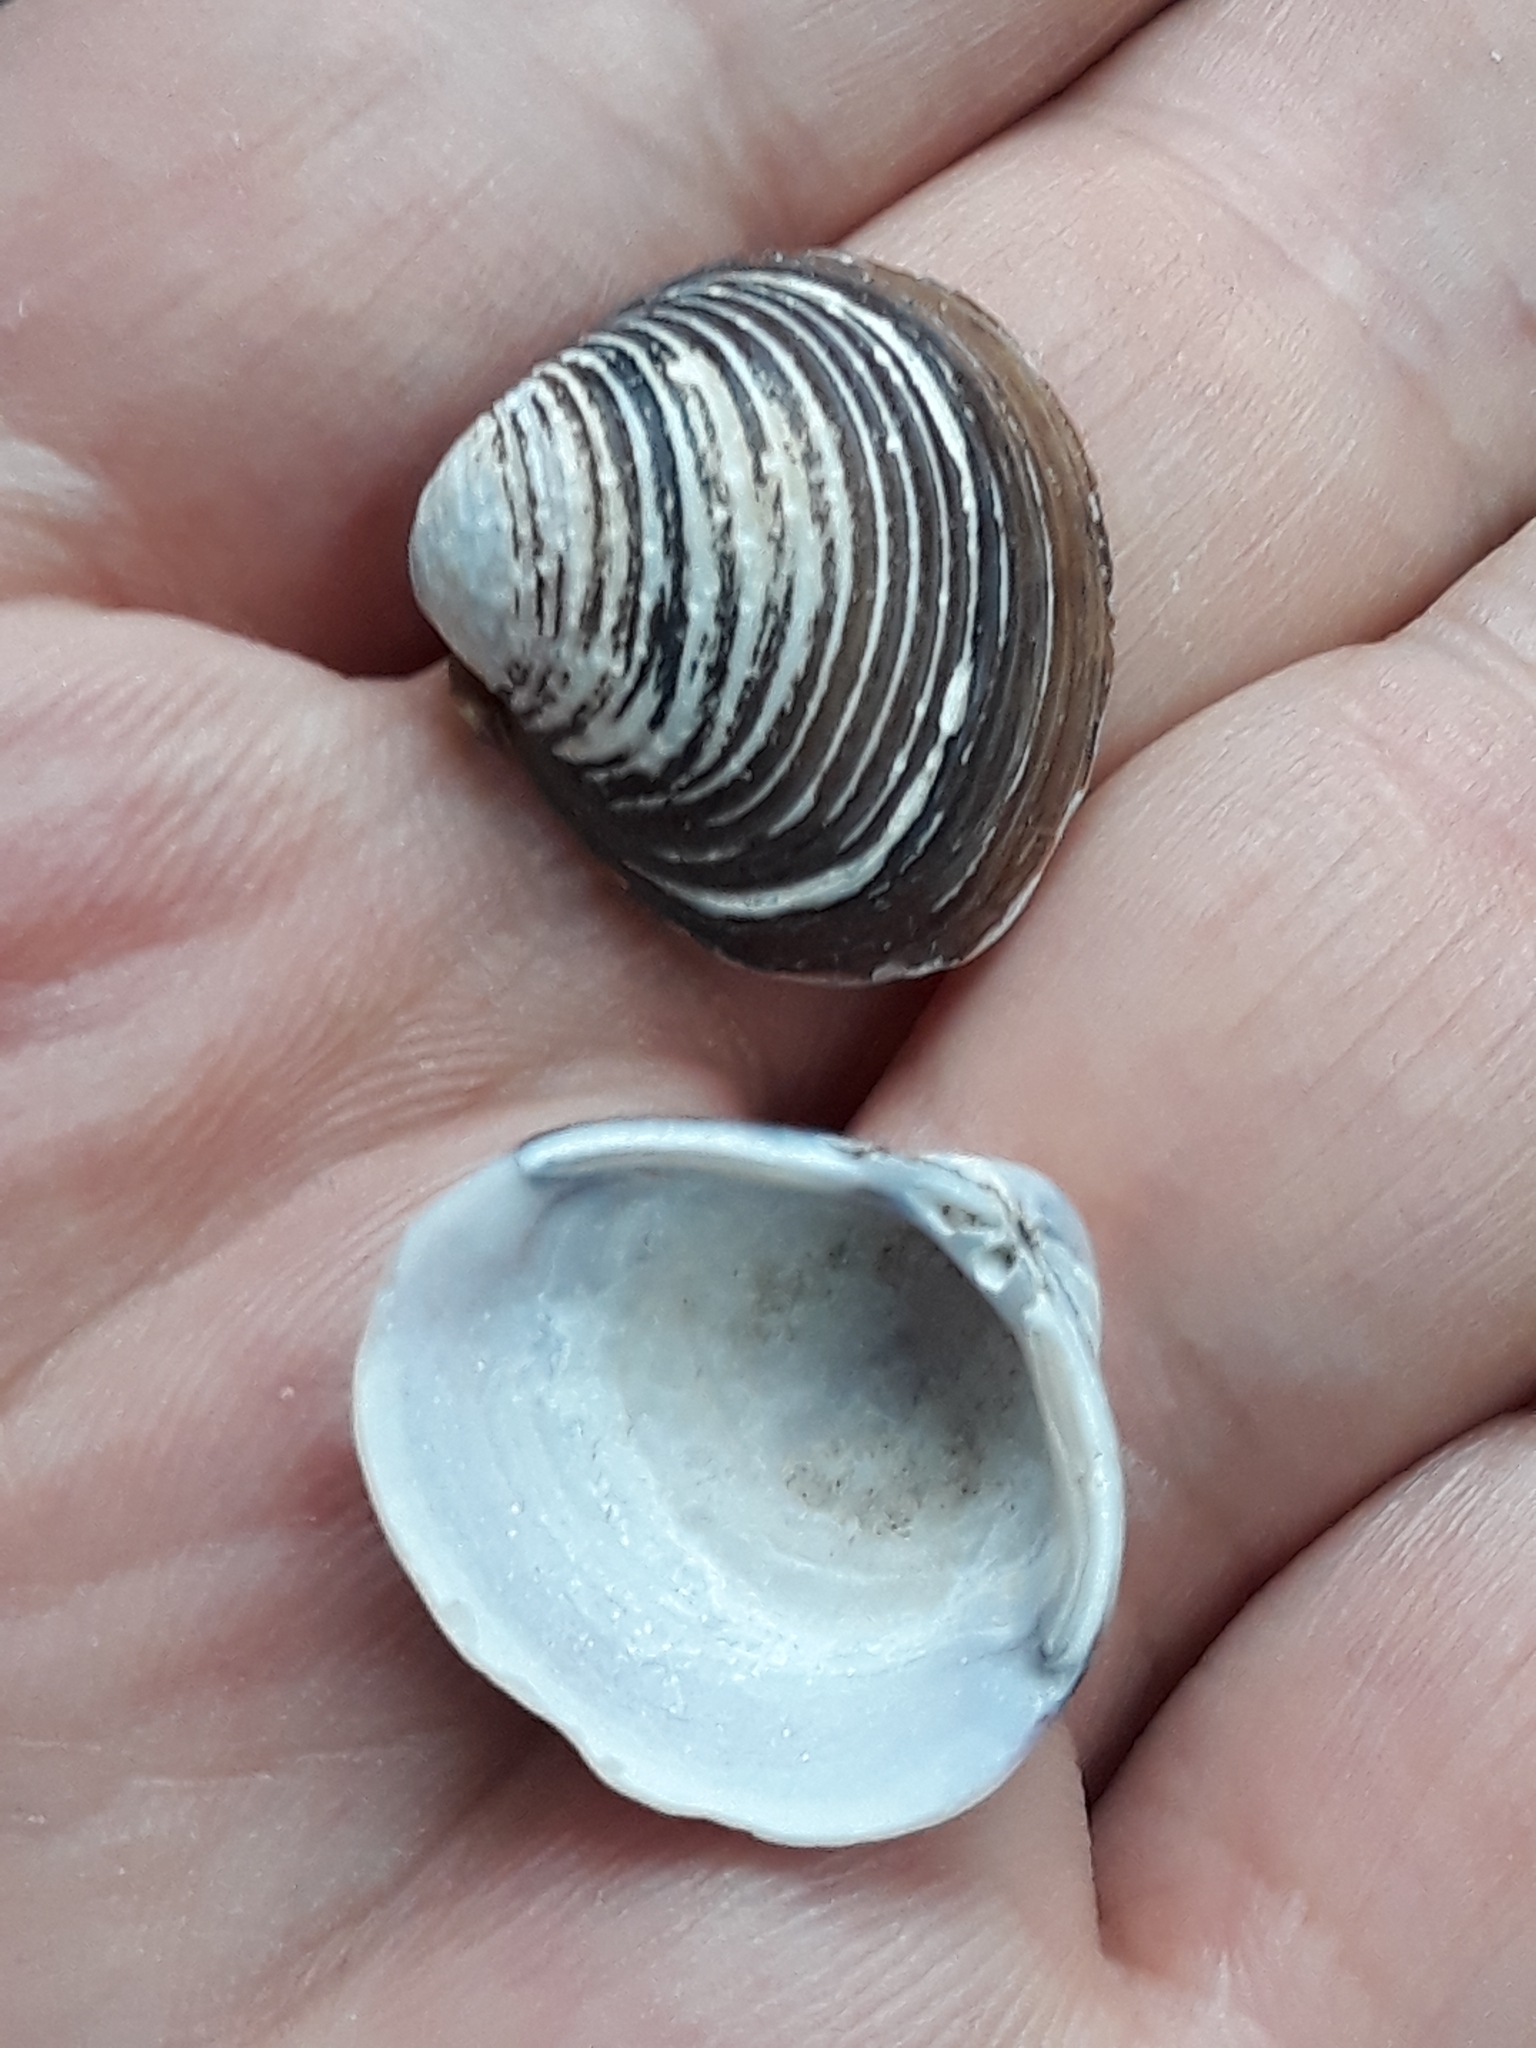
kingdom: Animalia
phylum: Mollusca
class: Bivalvia
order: Venerida
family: Cyrenidae
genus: Corbicula
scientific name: Corbicula fluminea
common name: Asian clam
